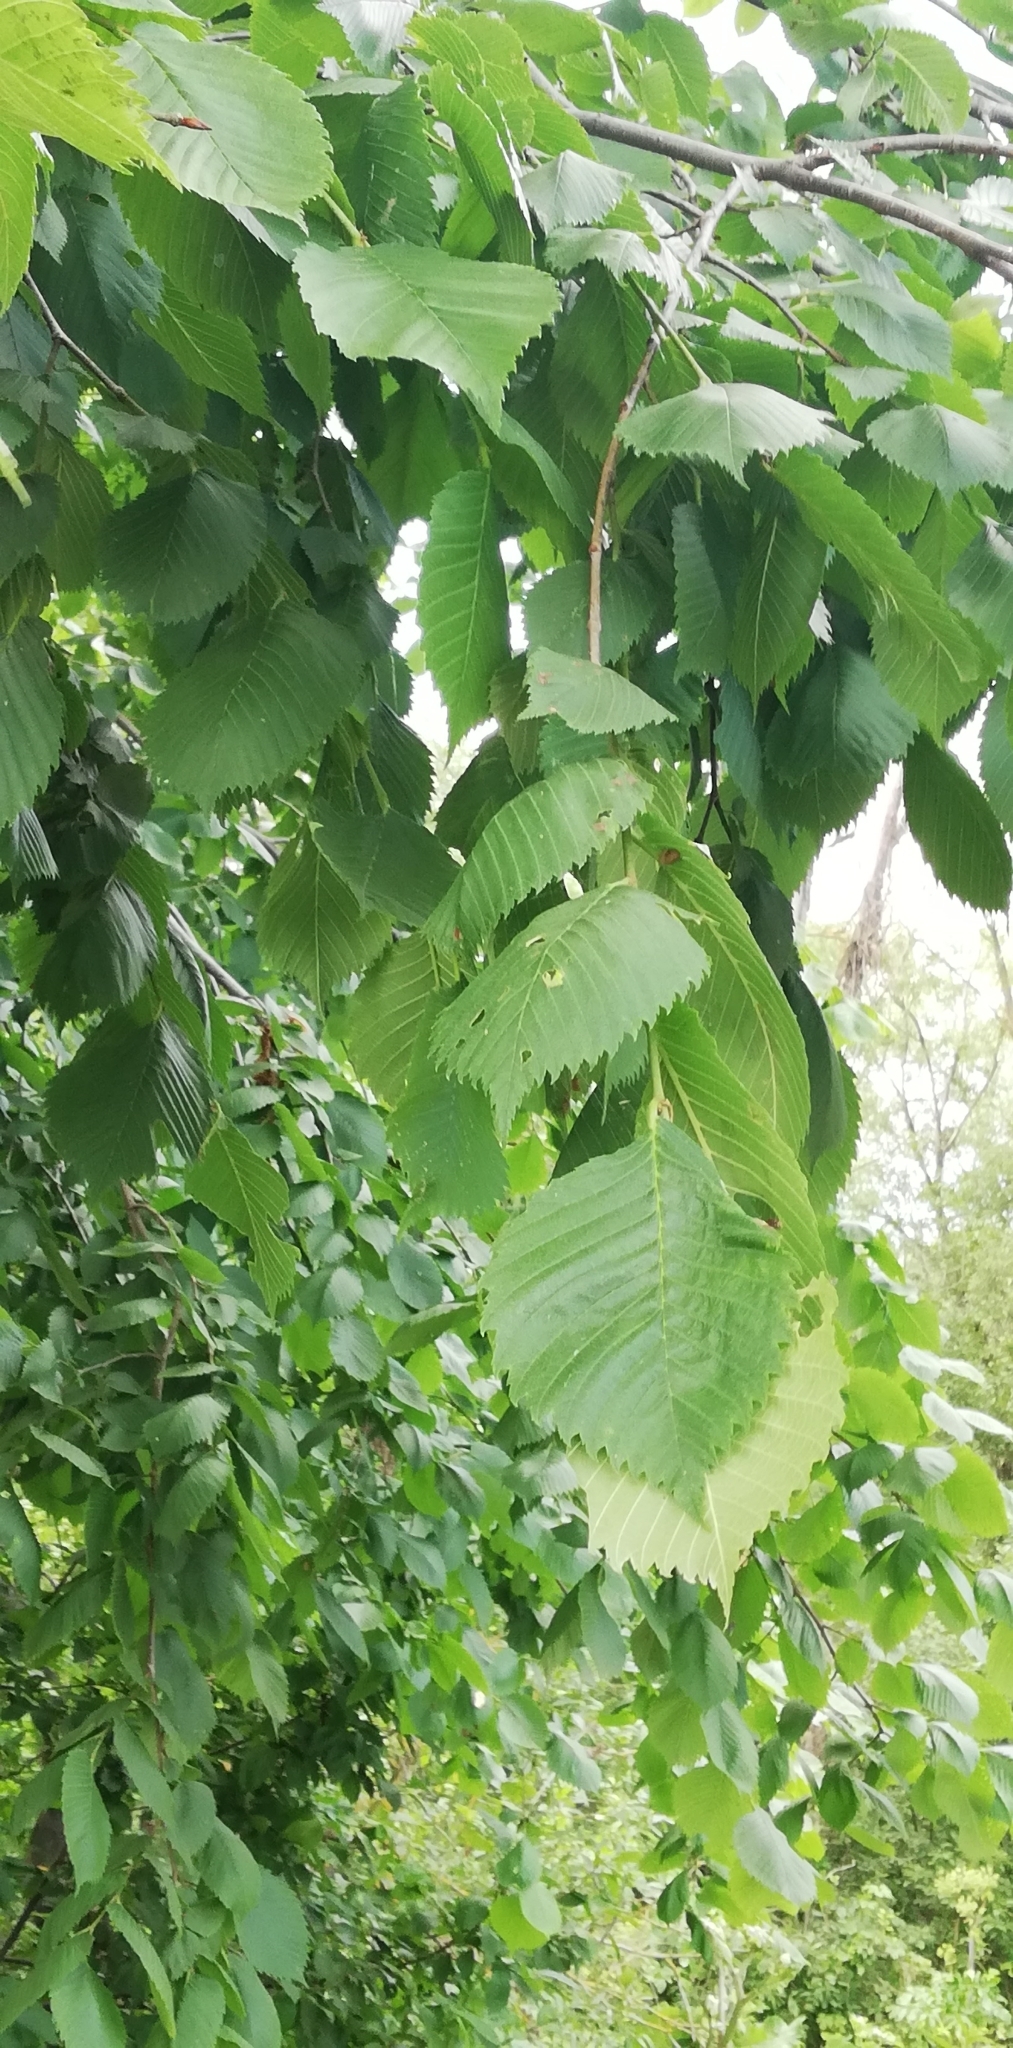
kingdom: Plantae
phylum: Tracheophyta
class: Magnoliopsida
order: Rosales
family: Ulmaceae
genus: Ulmus
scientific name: Ulmus laevis
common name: European white-elm
